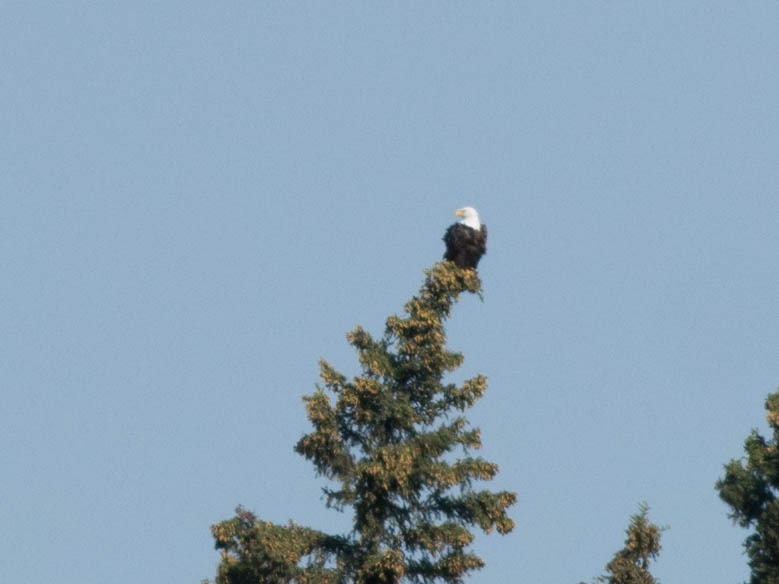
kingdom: Animalia
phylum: Chordata
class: Aves
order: Accipitriformes
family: Accipitridae
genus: Haliaeetus
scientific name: Haliaeetus leucocephalus
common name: Bald eagle
